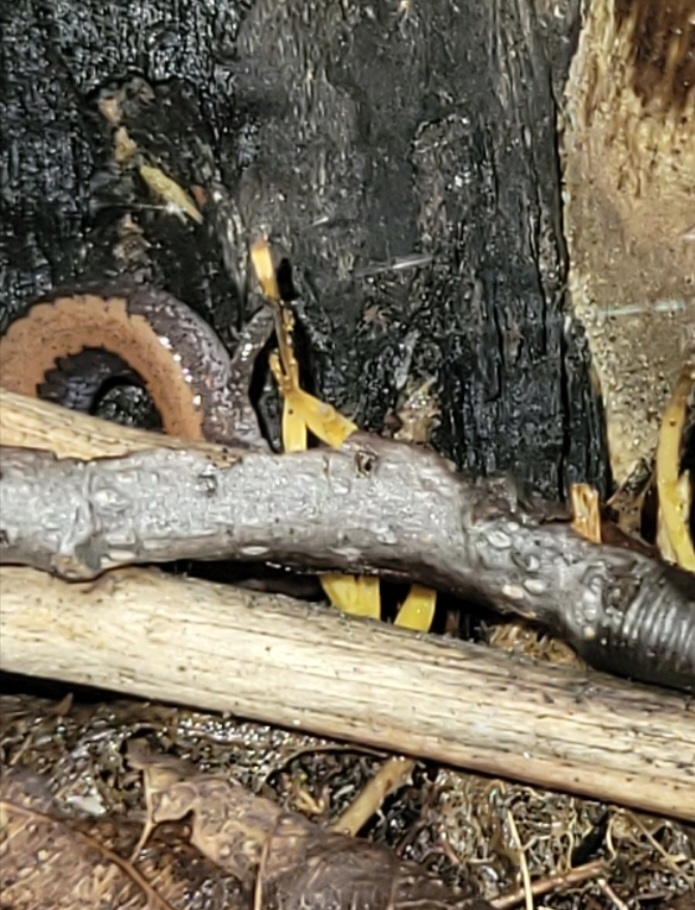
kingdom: Animalia
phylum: Chordata
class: Amphibia
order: Caudata
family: Plethodontidae
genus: Plethodon
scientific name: Plethodon cinereus
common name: Redback salamander
